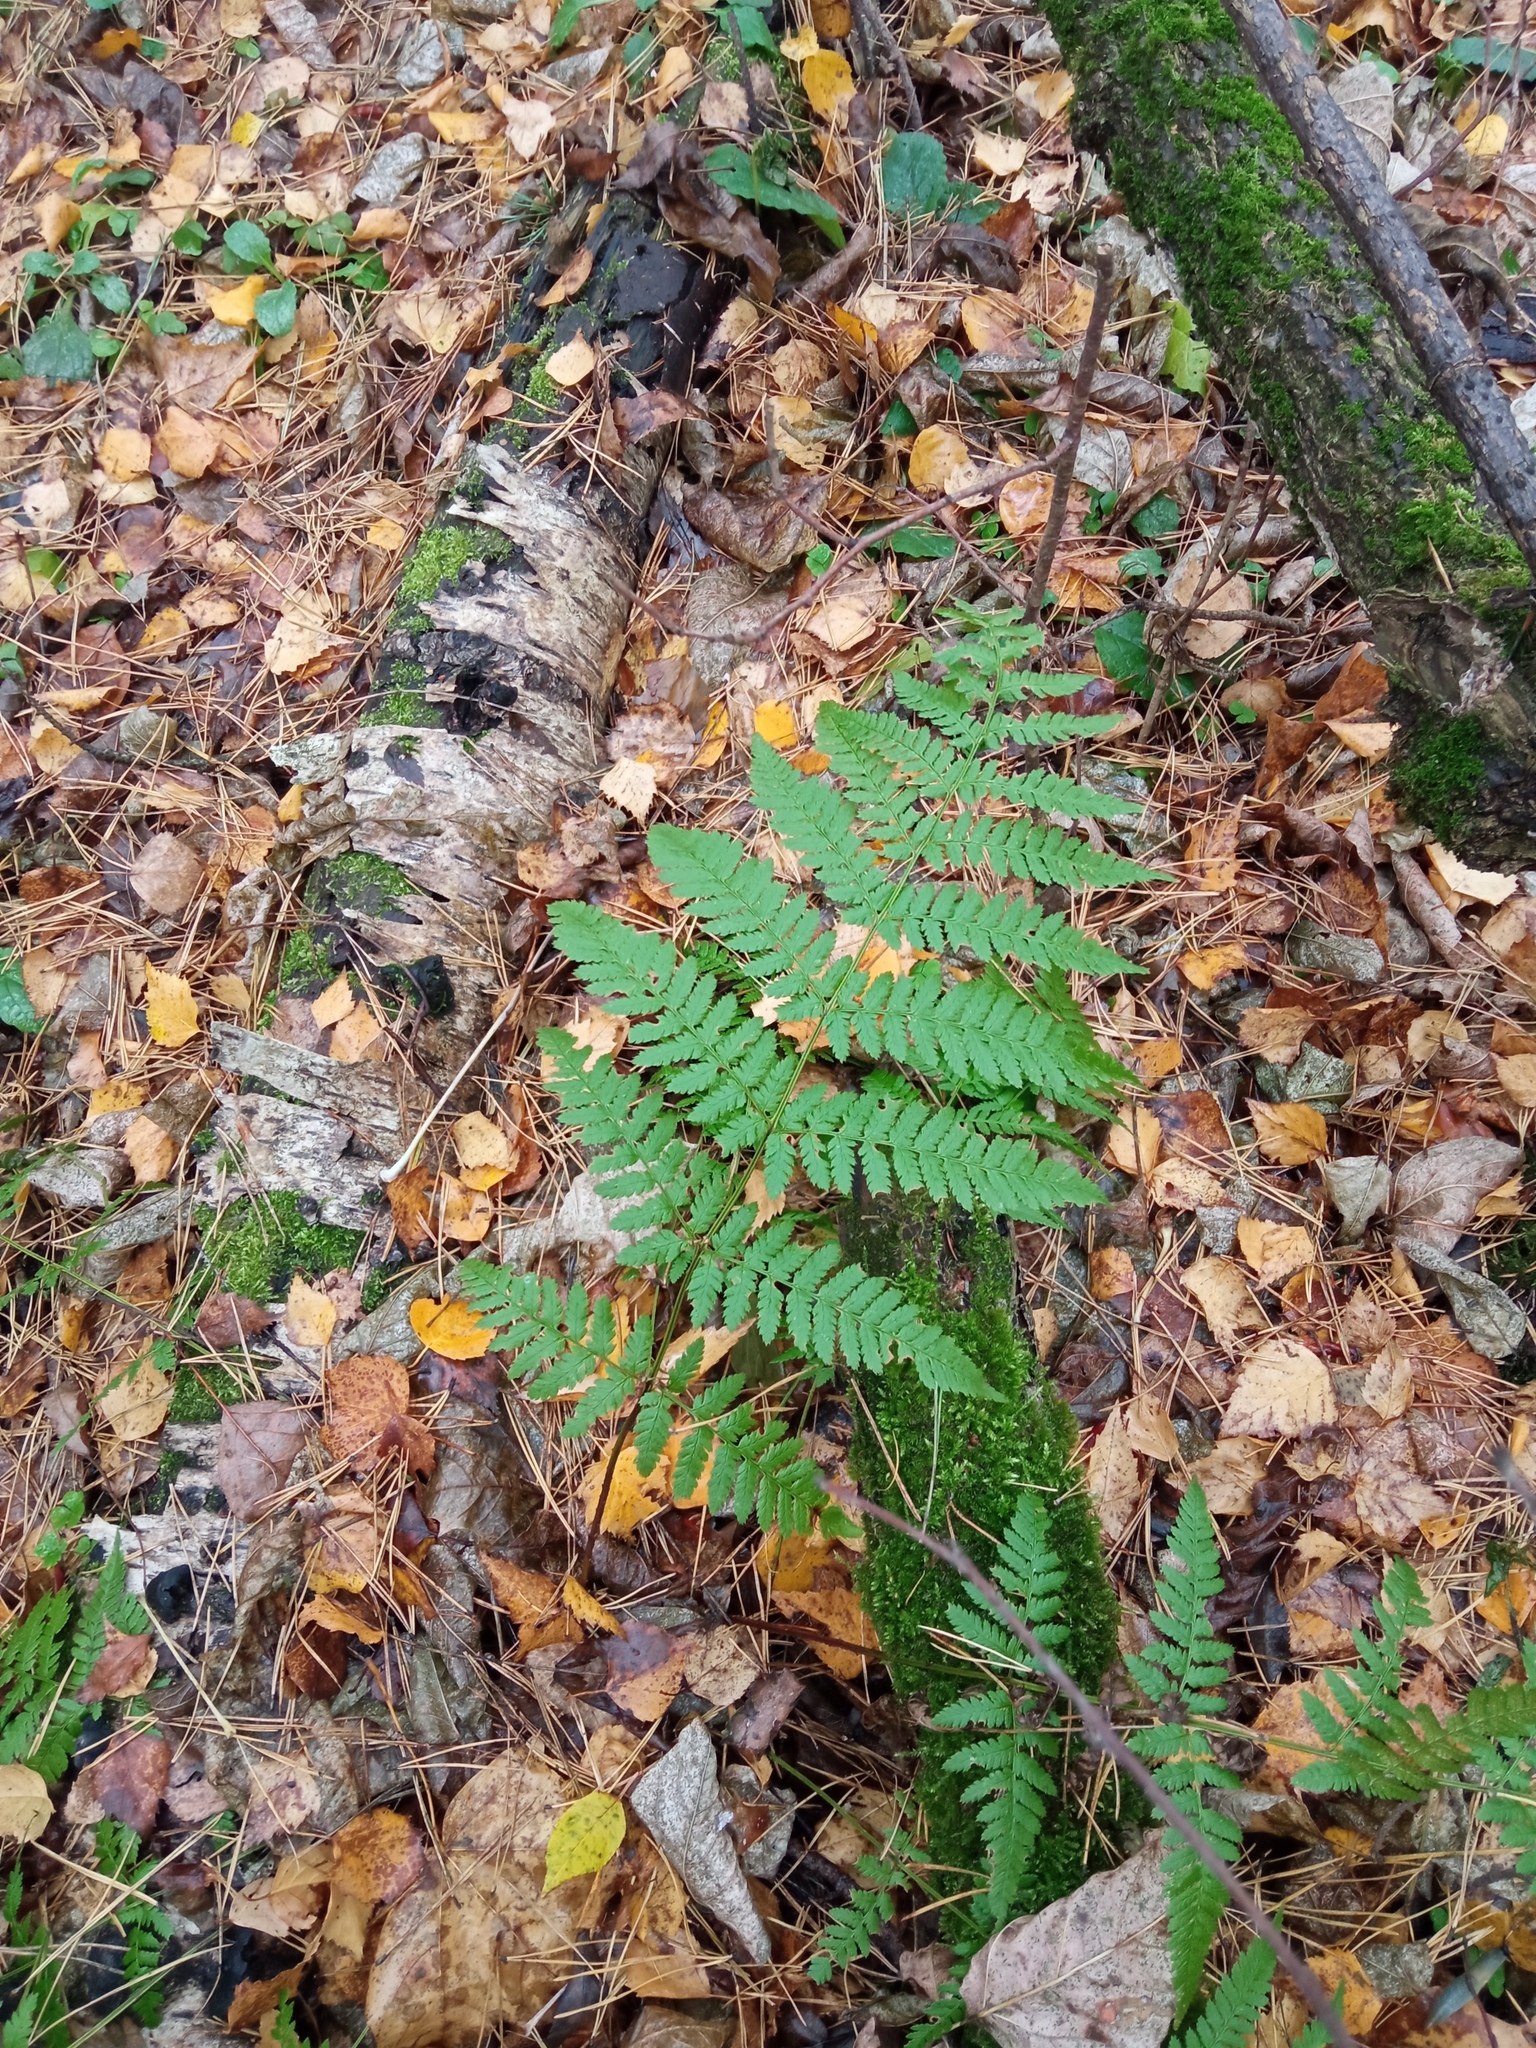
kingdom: Plantae
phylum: Tracheophyta
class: Polypodiopsida
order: Polypodiales
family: Dryopteridaceae
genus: Dryopteris
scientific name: Dryopteris carthusiana
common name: Narrow buckler-fern
